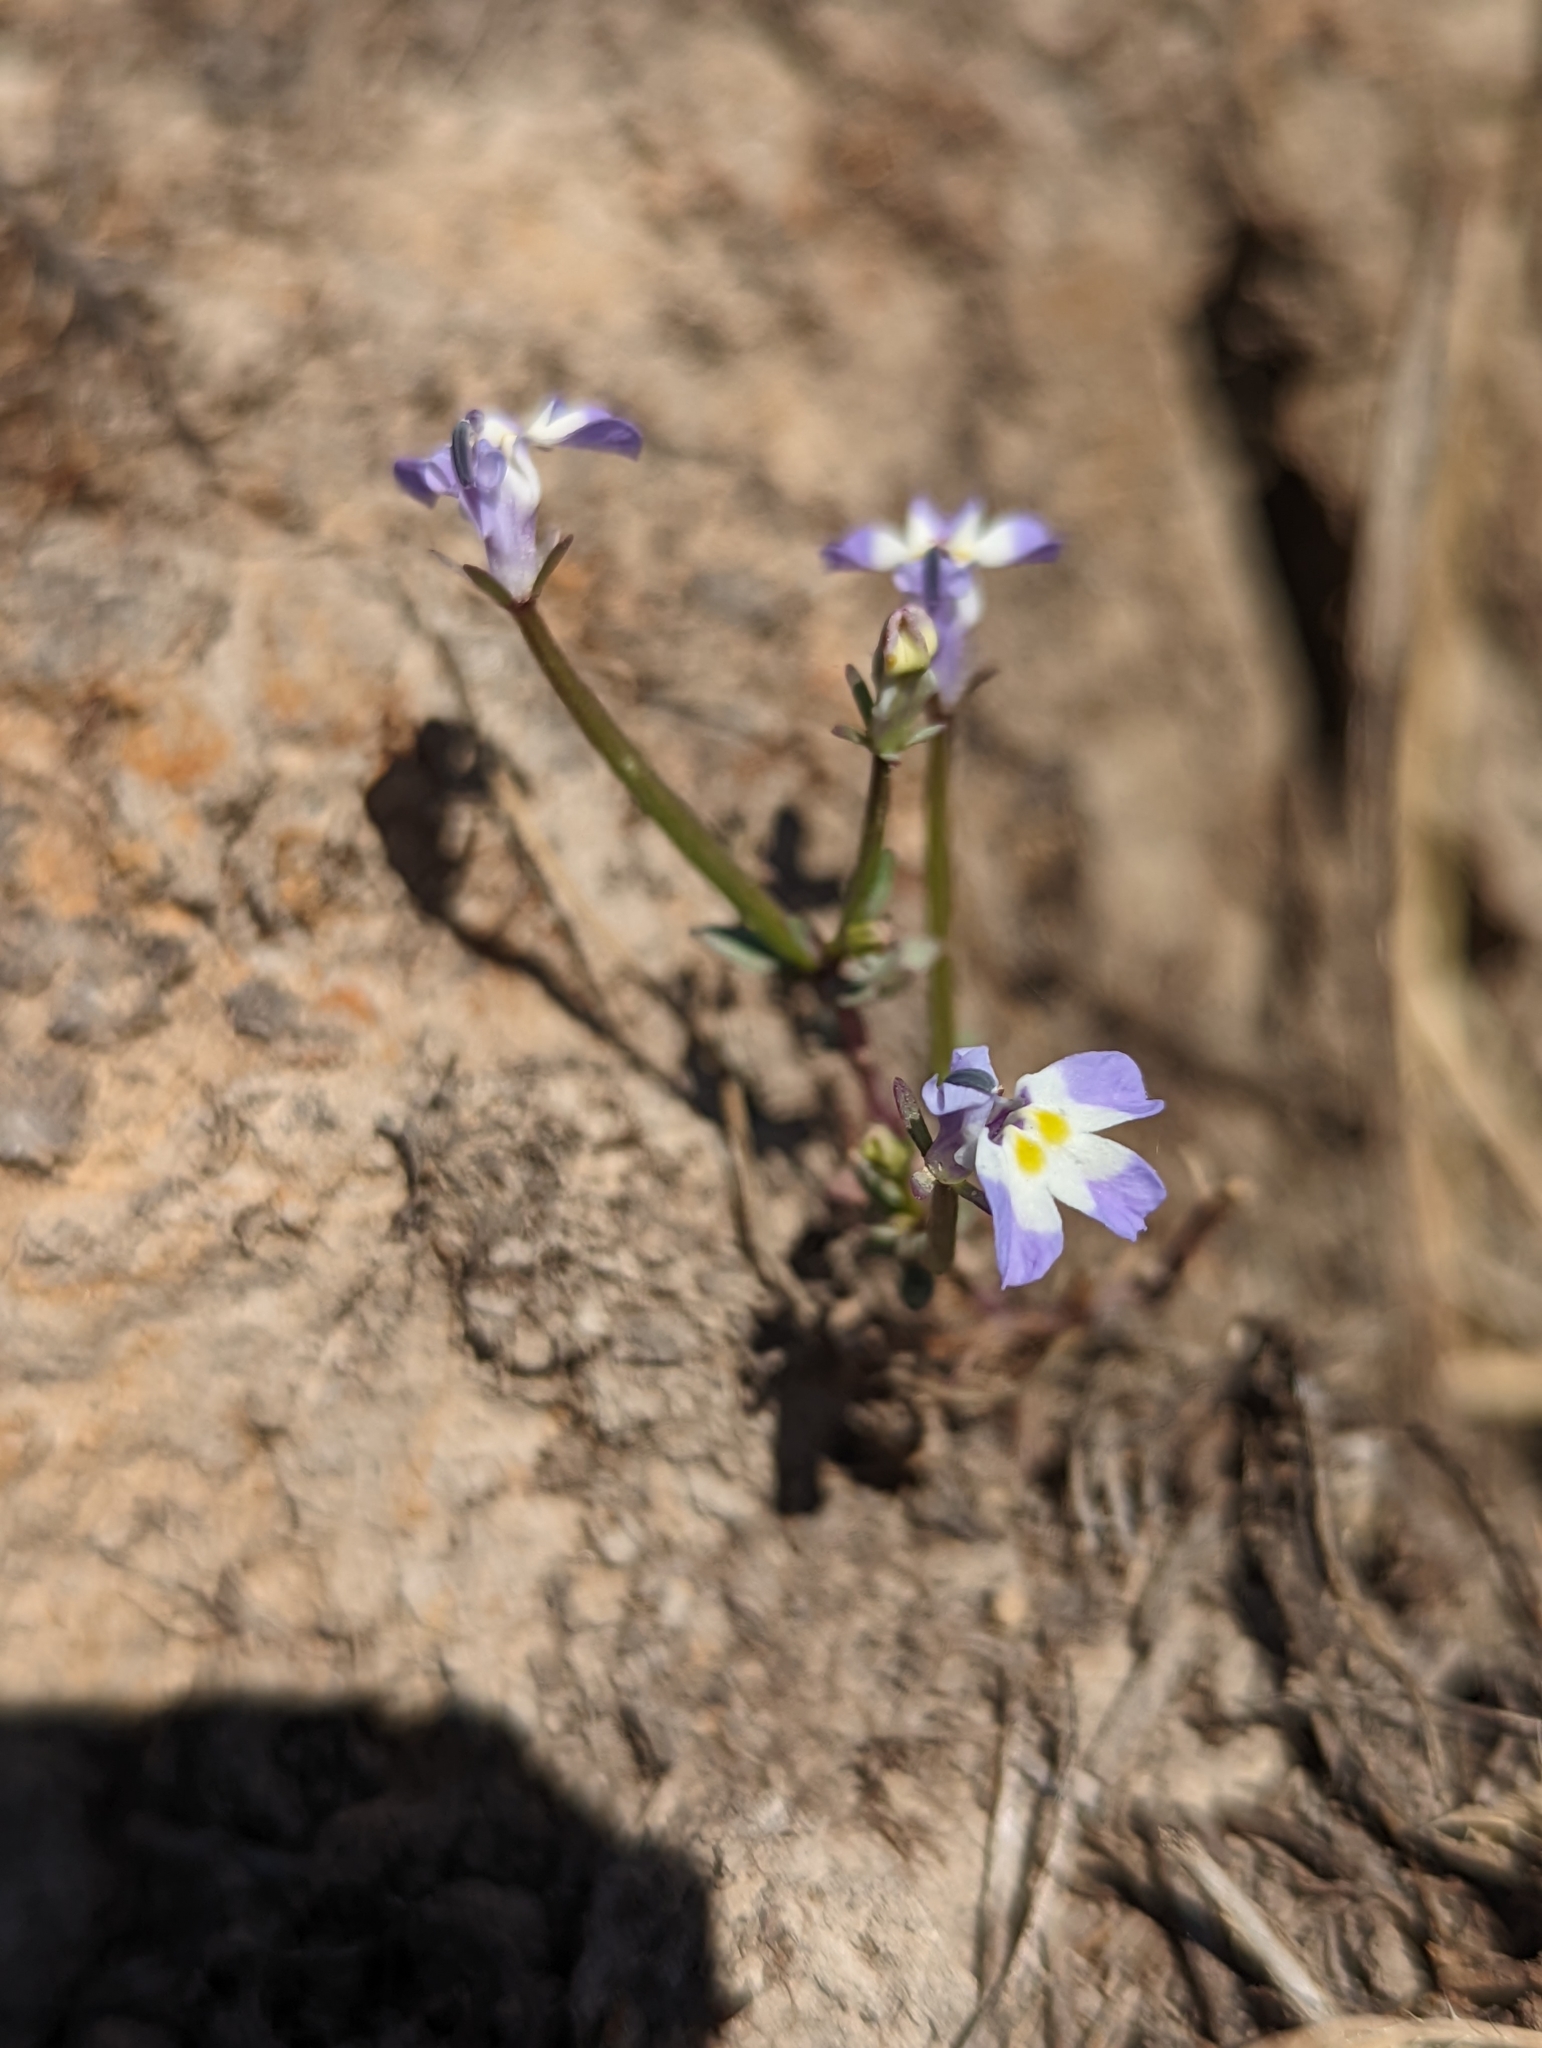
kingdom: Plantae
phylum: Tracheophyta
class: Magnoliopsida
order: Asterales
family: Campanulaceae
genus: Downingia
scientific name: Downingia ornatissima
